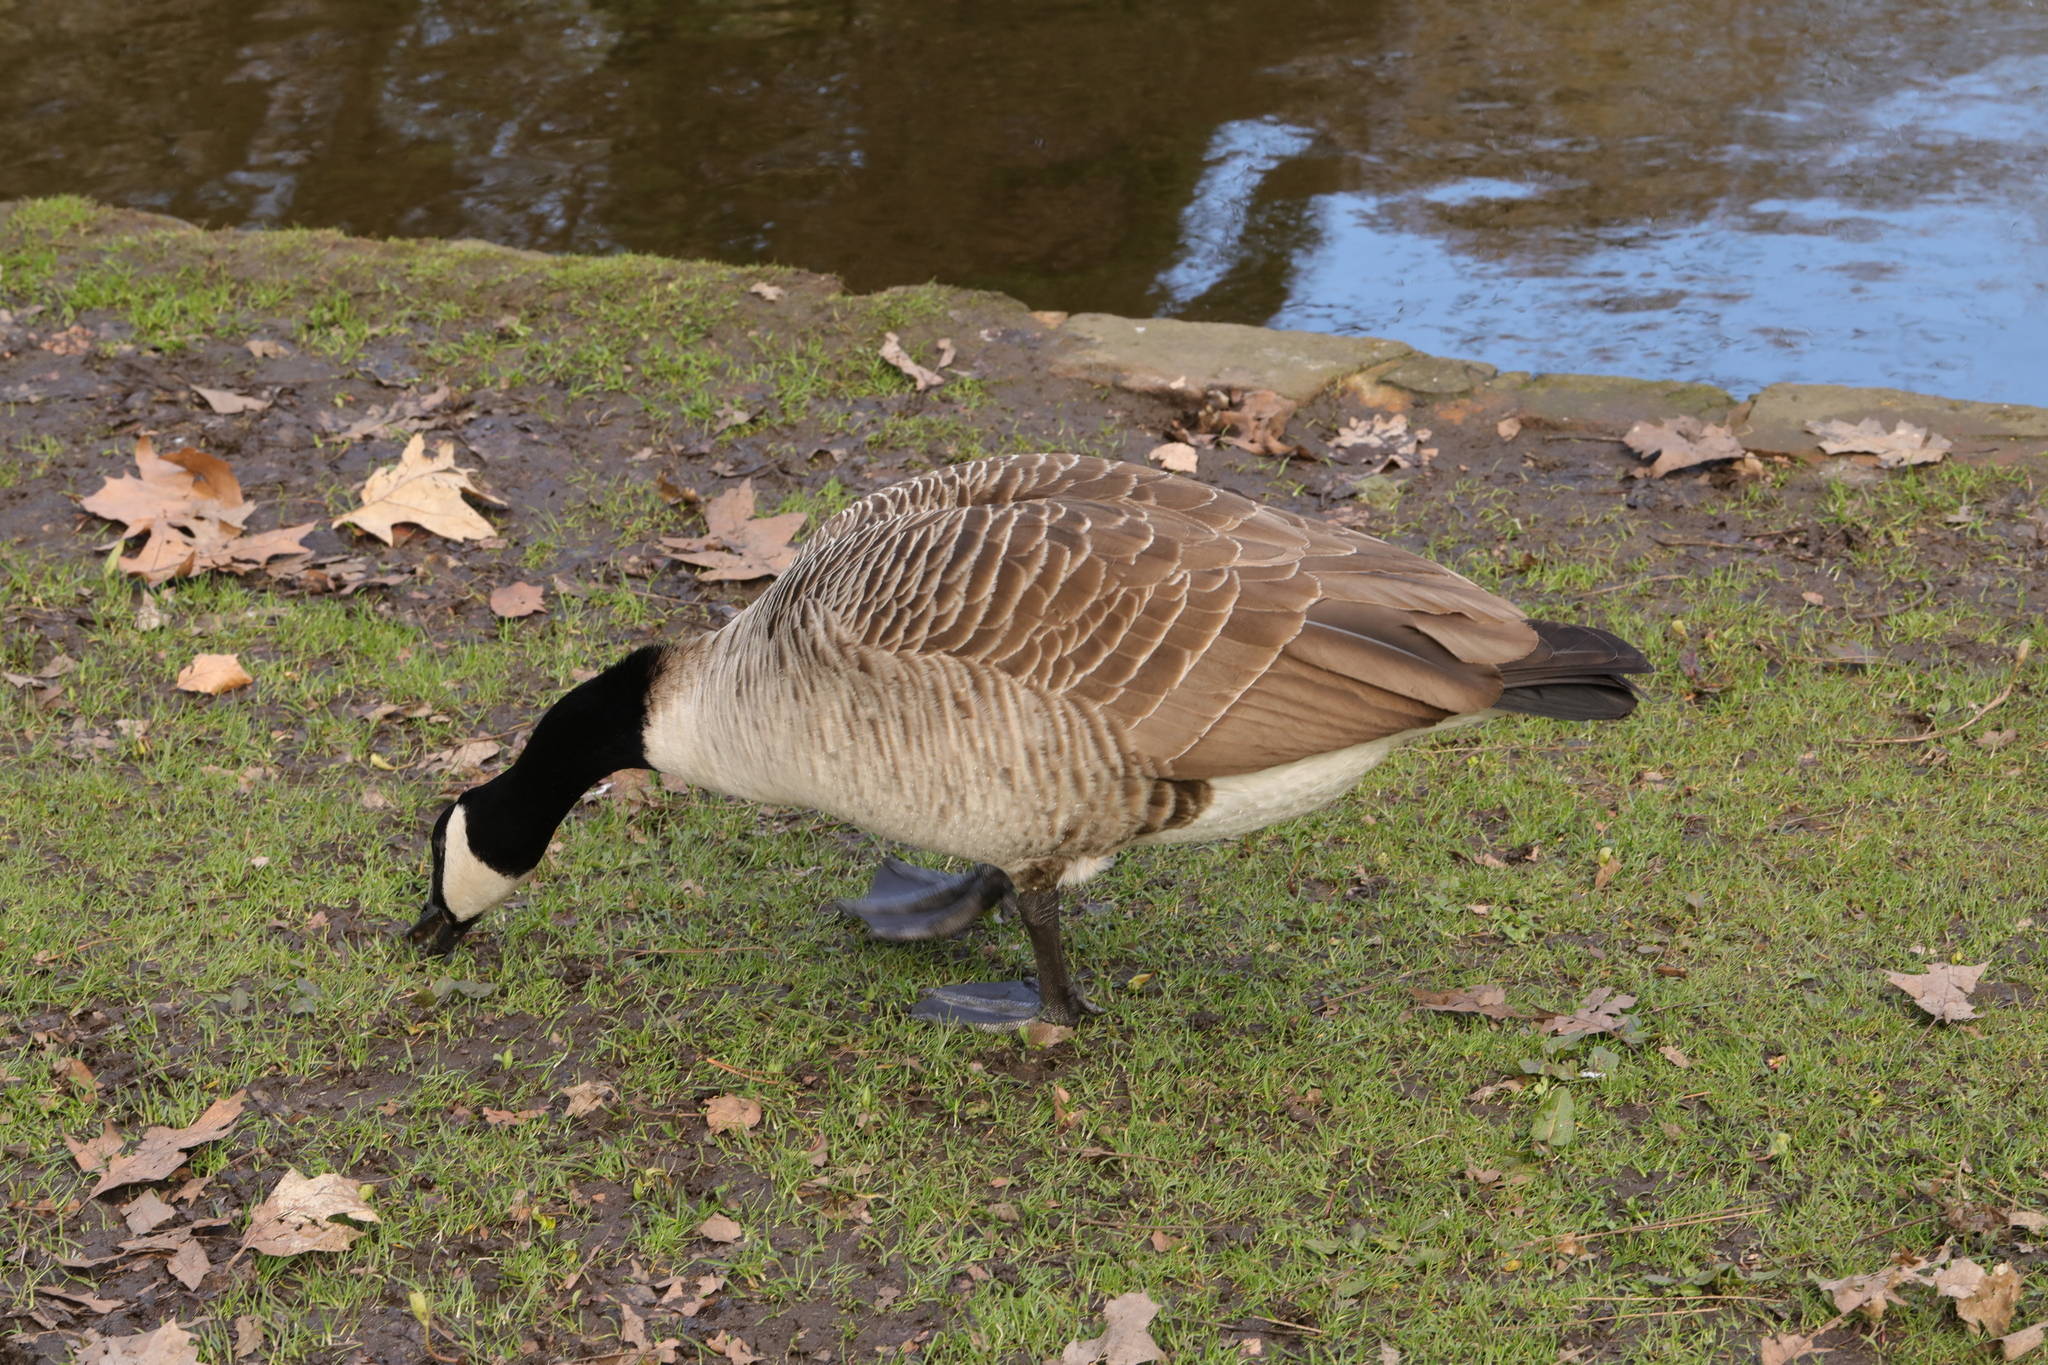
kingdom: Animalia
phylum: Chordata
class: Aves
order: Anseriformes
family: Anatidae
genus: Branta
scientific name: Branta canadensis
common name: Canada goose
